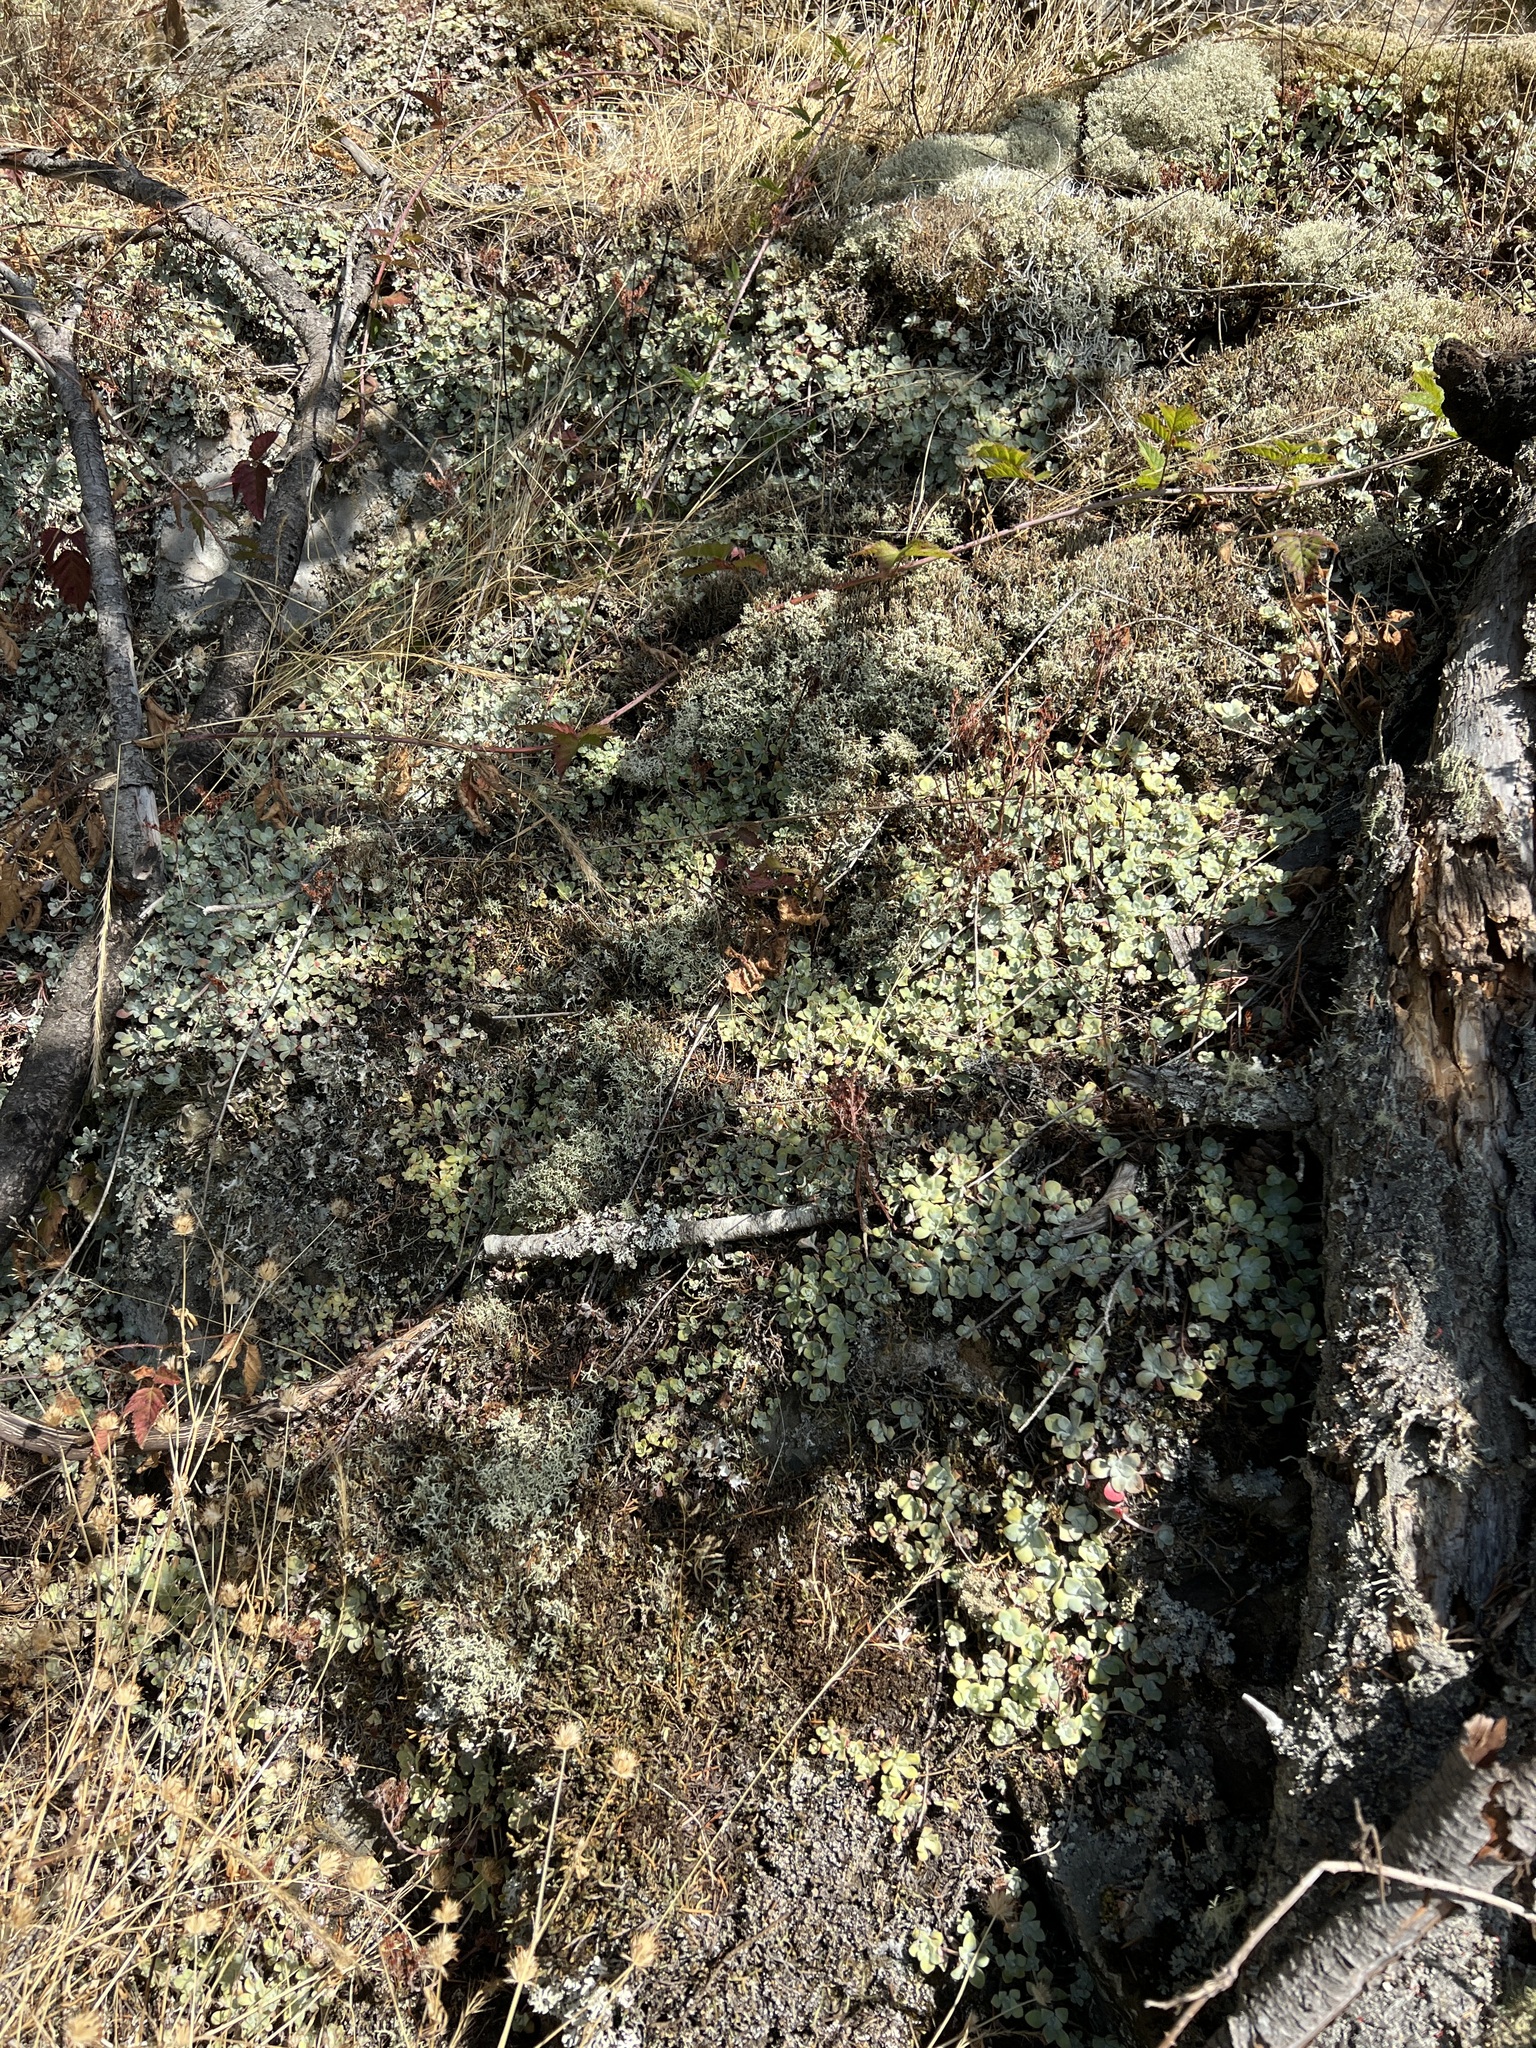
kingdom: Plantae
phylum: Tracheophyta
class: Magnoliopsida
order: Saxifragales
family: Crassulaceae
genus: Sedum
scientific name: Sedum spathulifolium
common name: Colorado stonecrop
